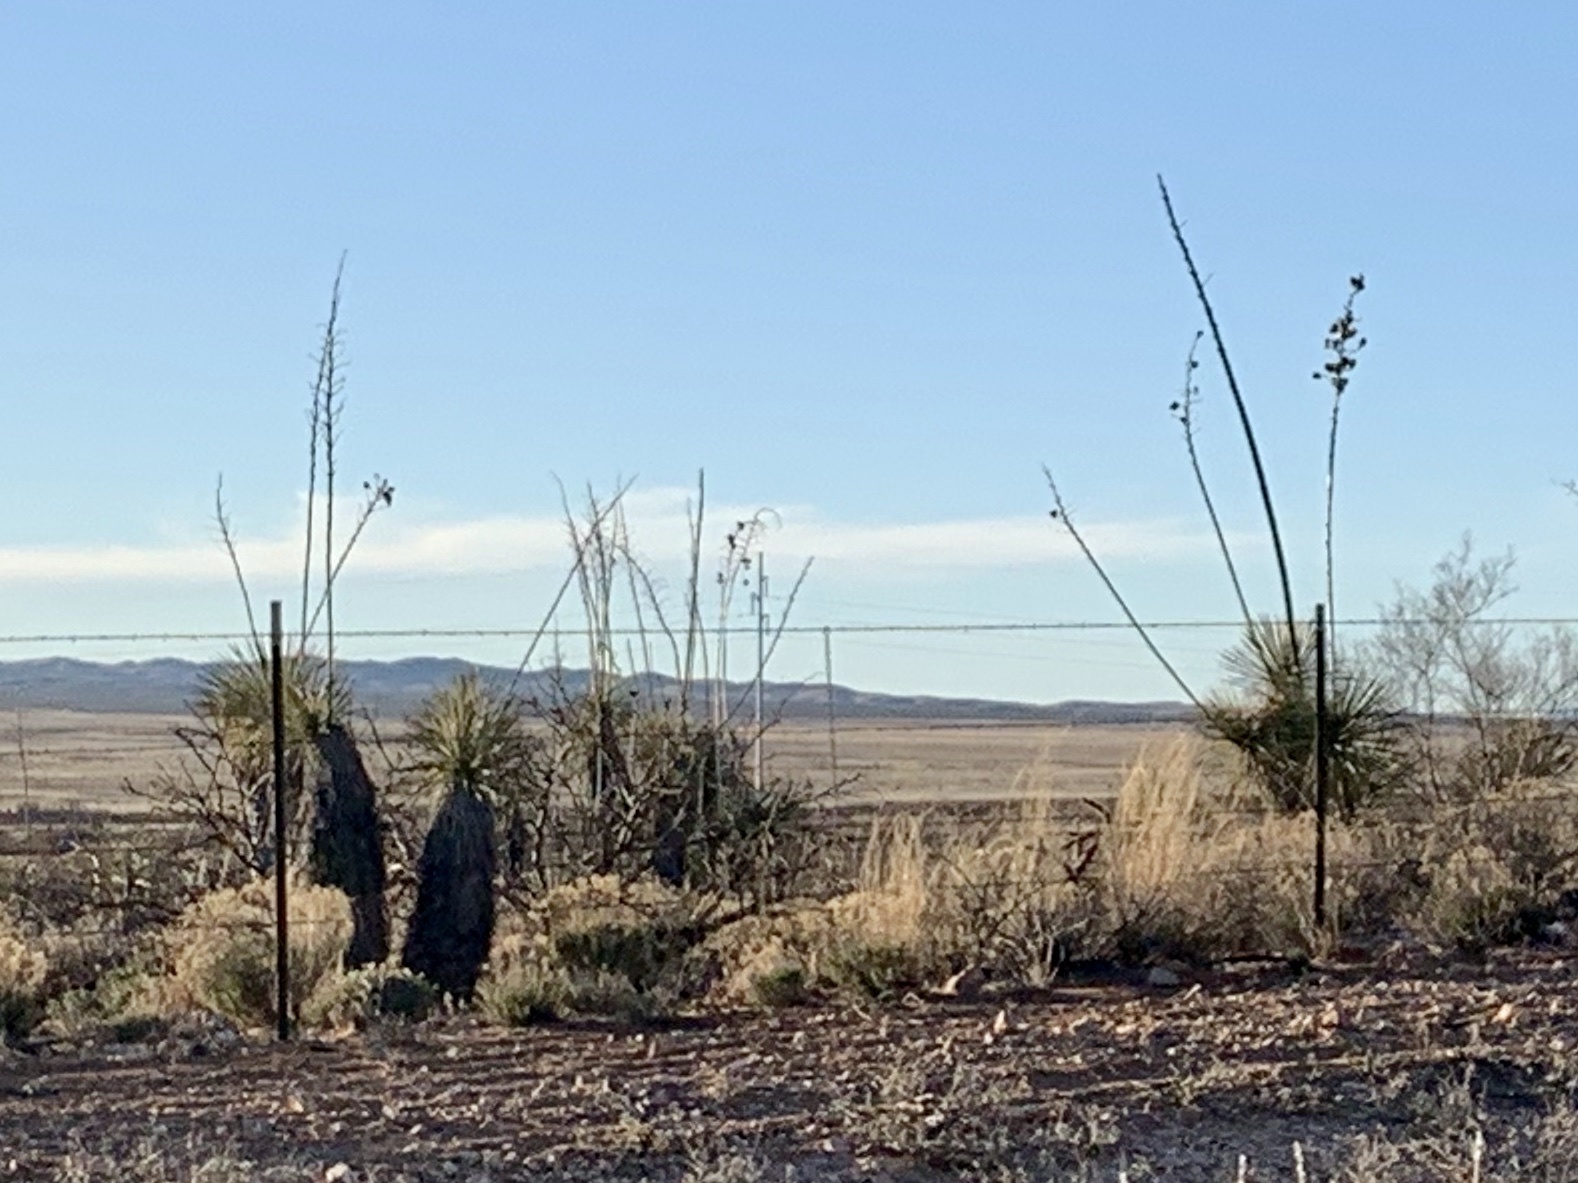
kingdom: Plantae
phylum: Tracheophyta
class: Liliopsida
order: Asparagales
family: Asparagaceae
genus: Yucca
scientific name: Yucca elata
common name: Palmella
